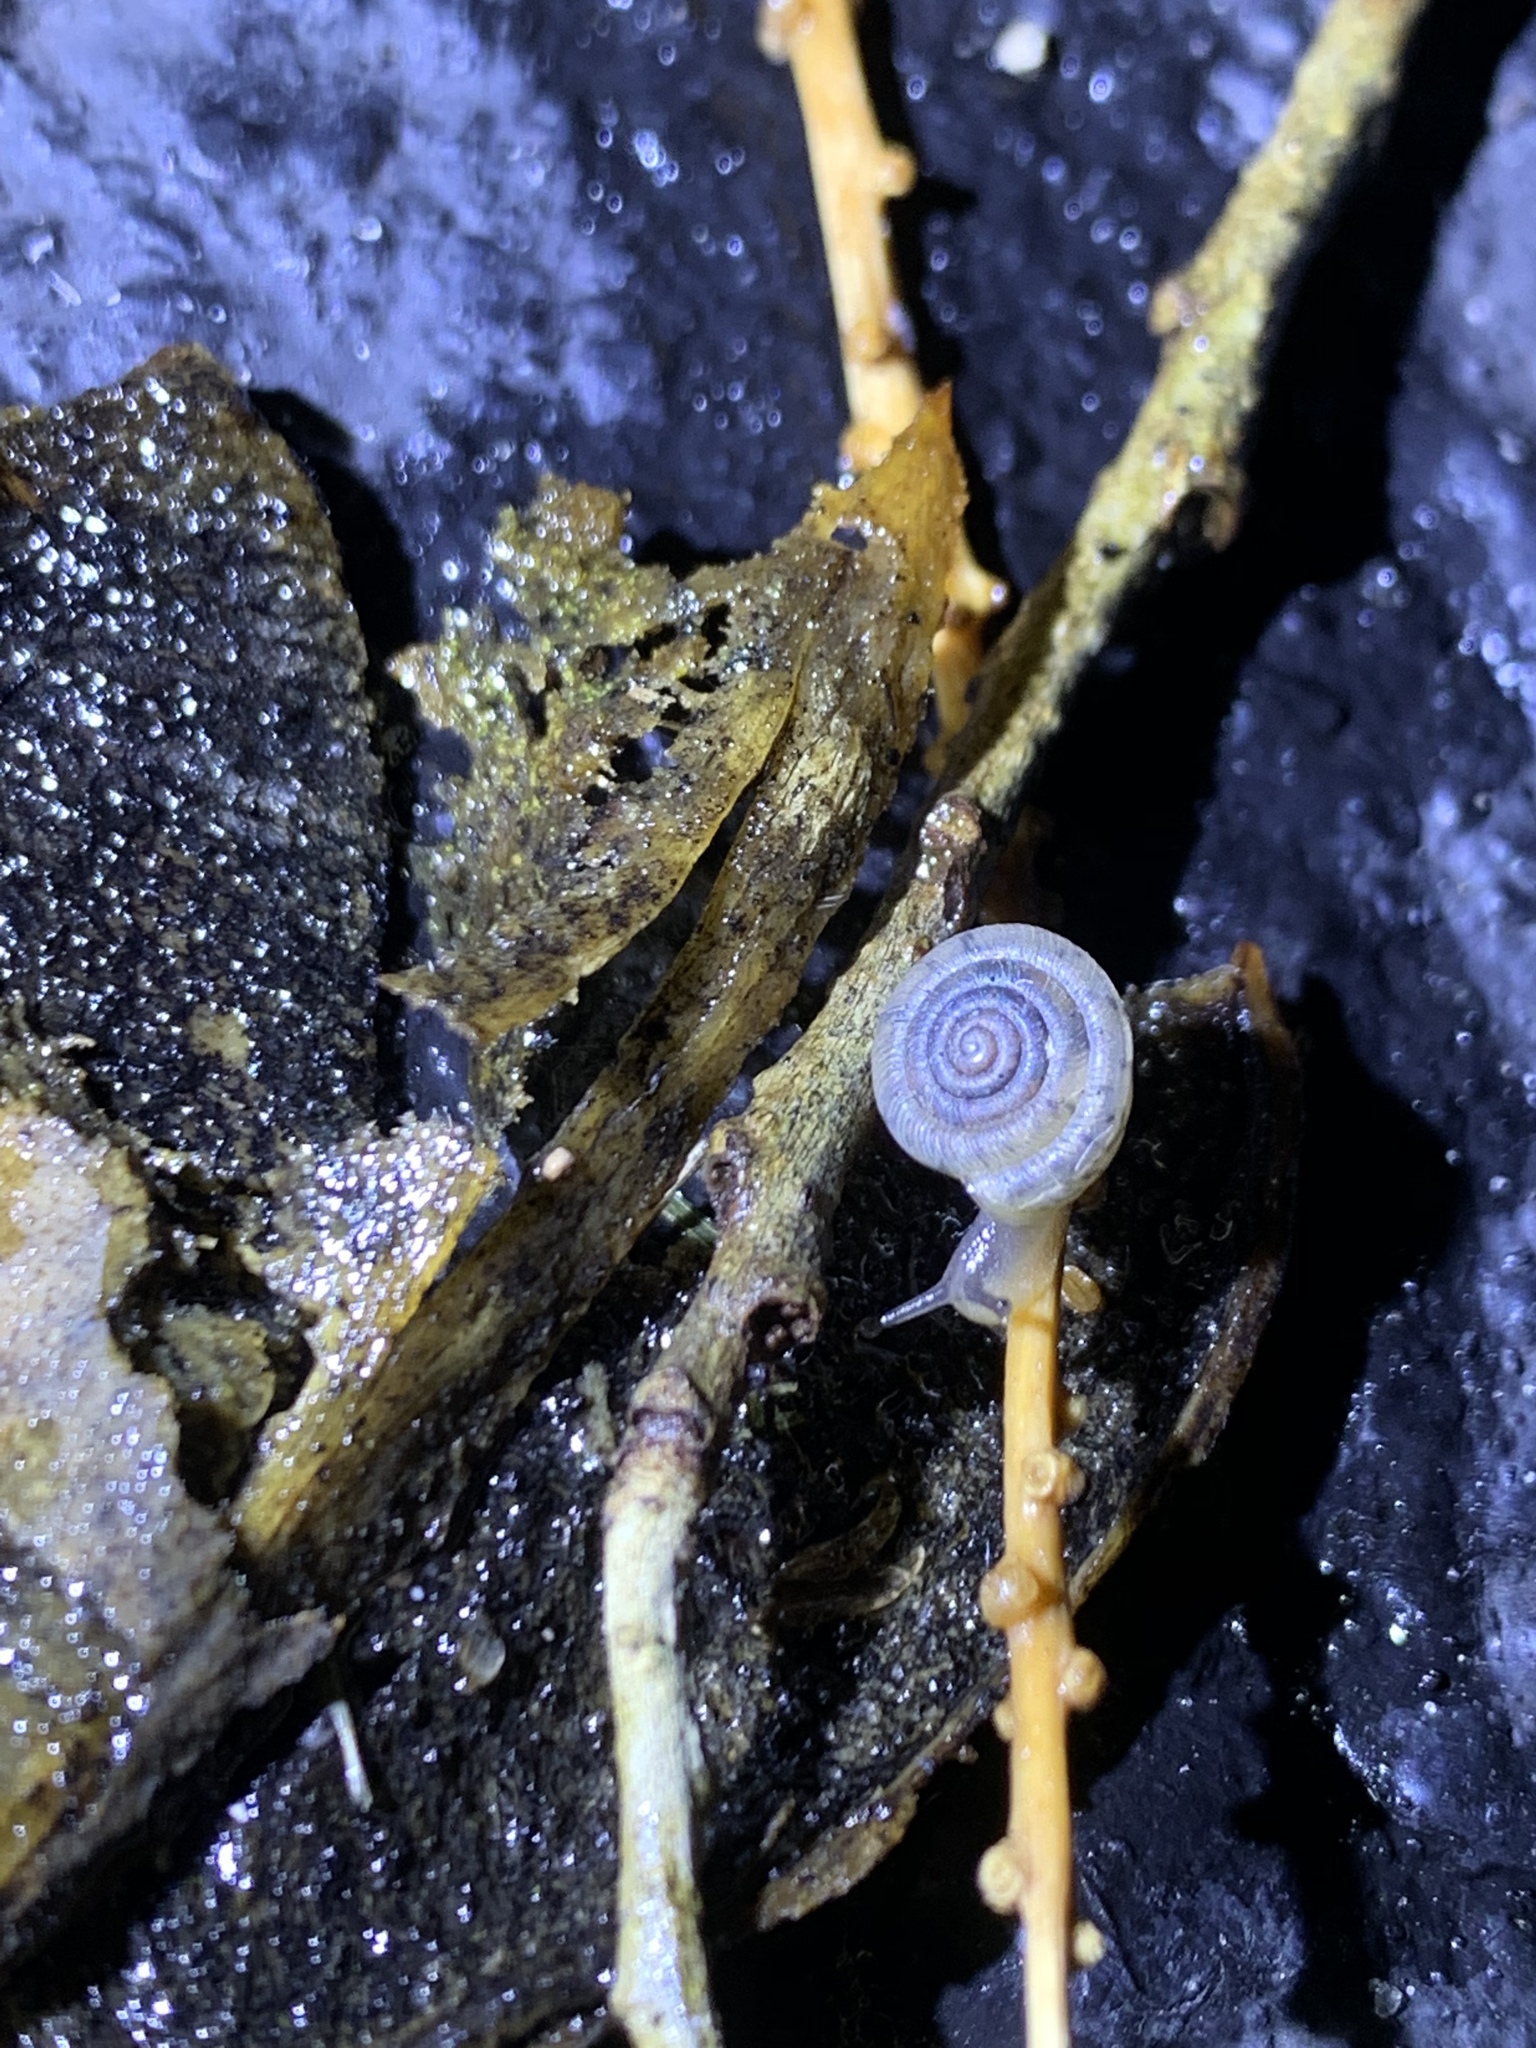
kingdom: Animalia
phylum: Mollusca
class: Gastropoda
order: Stylommatophora
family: Polygyridae
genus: Polygyra
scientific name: Polygyra cereolus
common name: Southern flatcone snail
